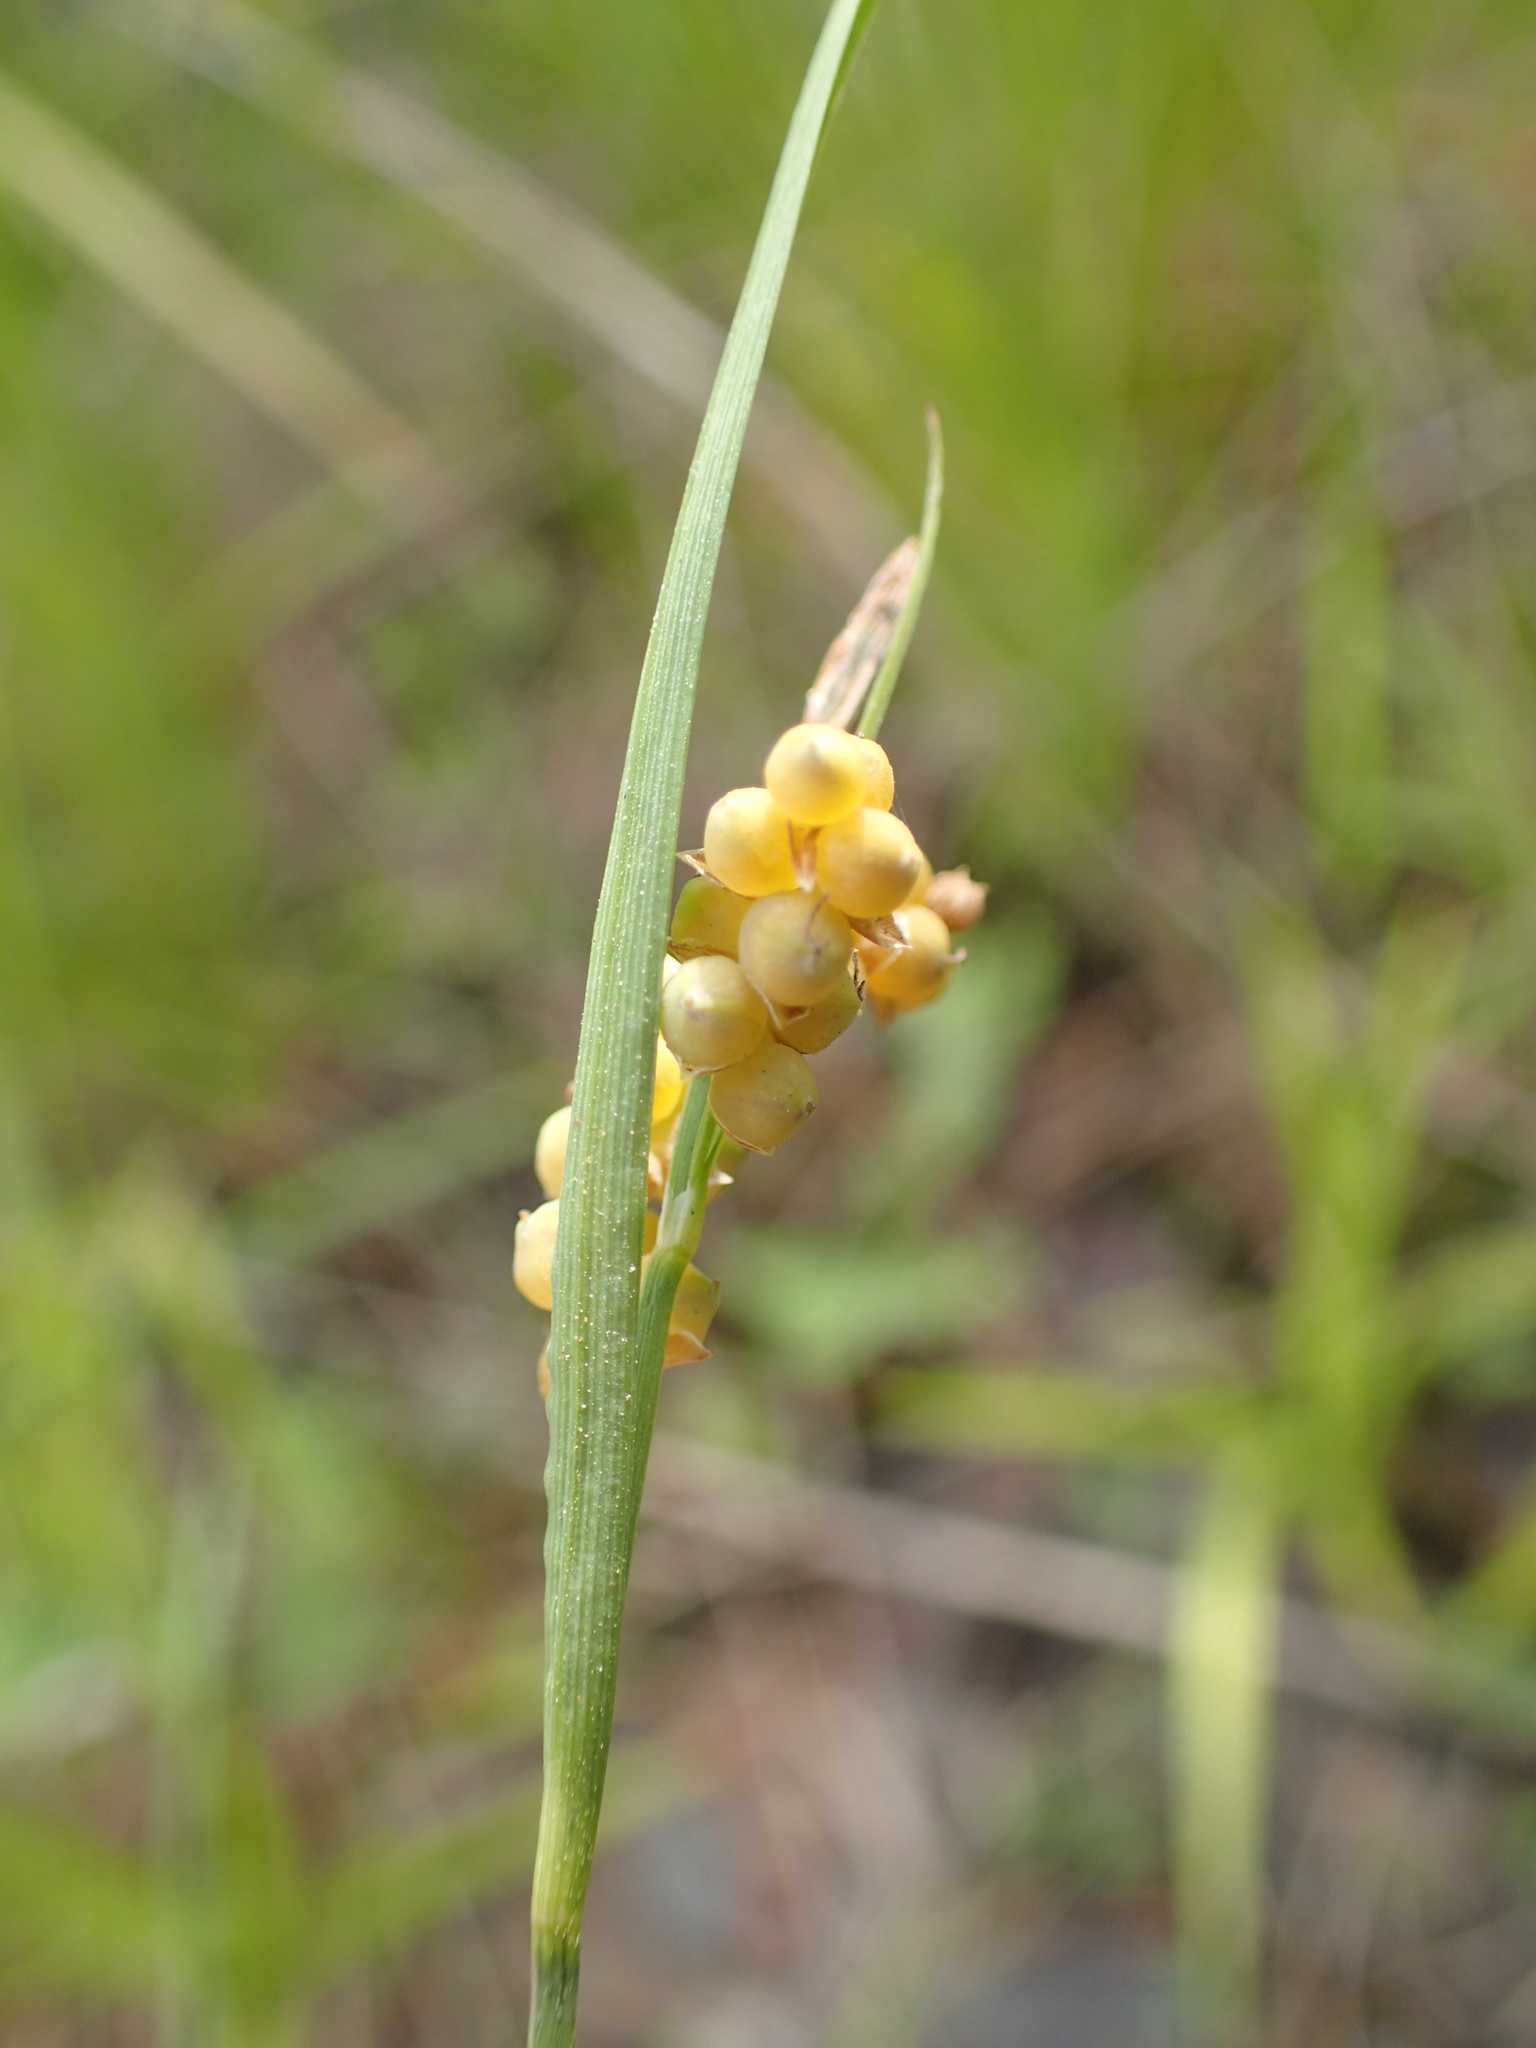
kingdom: Plantae
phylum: Tracheophyta
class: Liliopsida
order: Poales
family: Cyperaceae
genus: Carex
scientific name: Carex aurea
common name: Golden sedge
